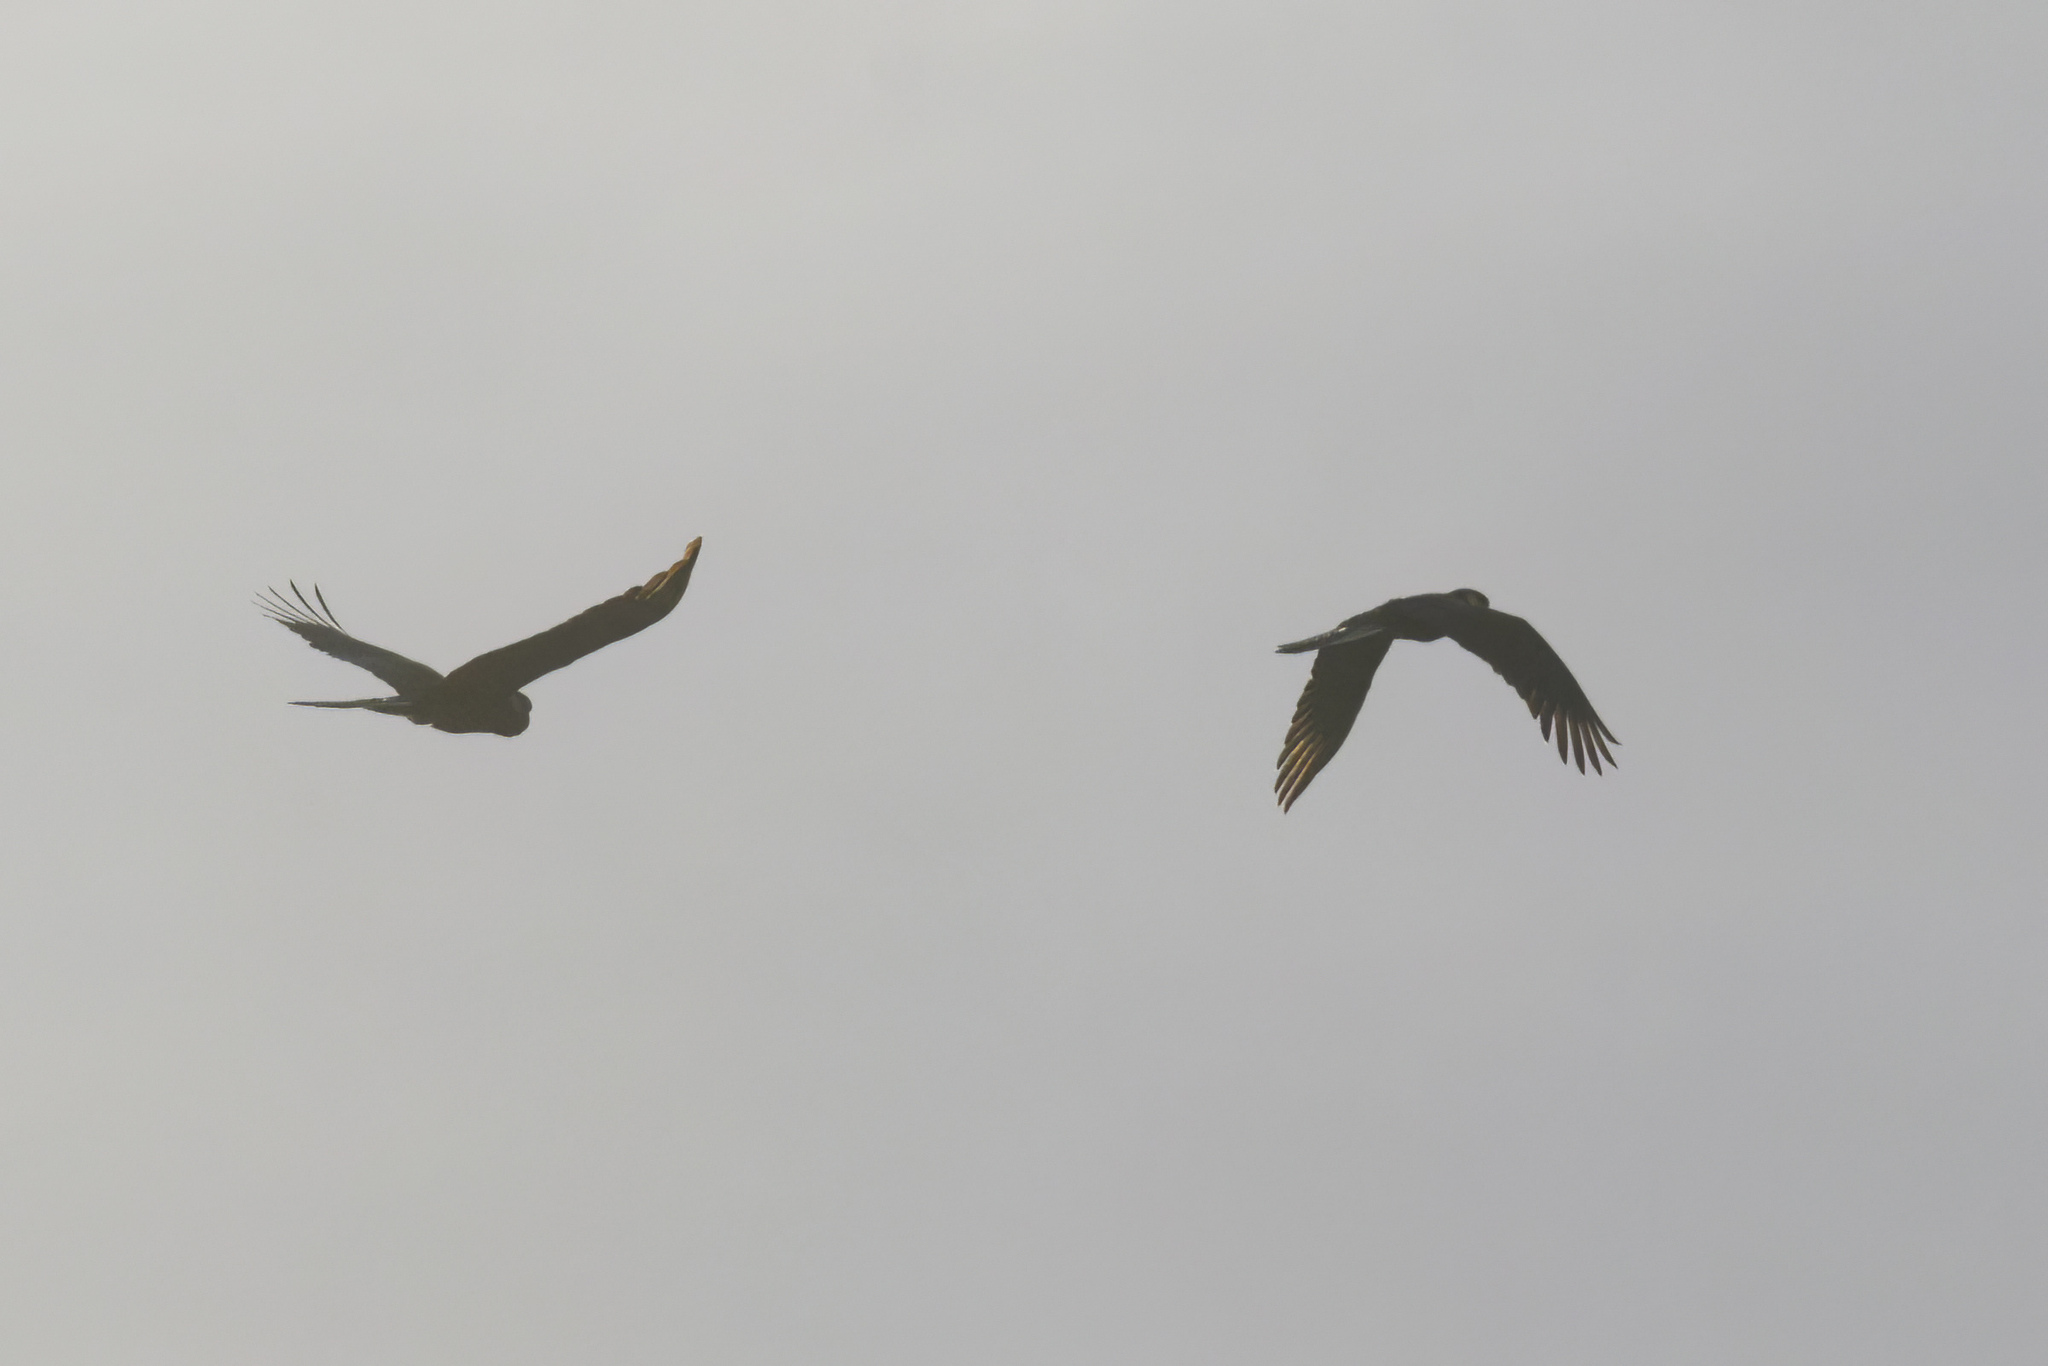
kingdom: Animalia
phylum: Chordata
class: Aves
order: Psittaciformes
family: Cacatuidae
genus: Zanda
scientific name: Zanda funerea
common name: Yellow-tailed black-cockatoo
